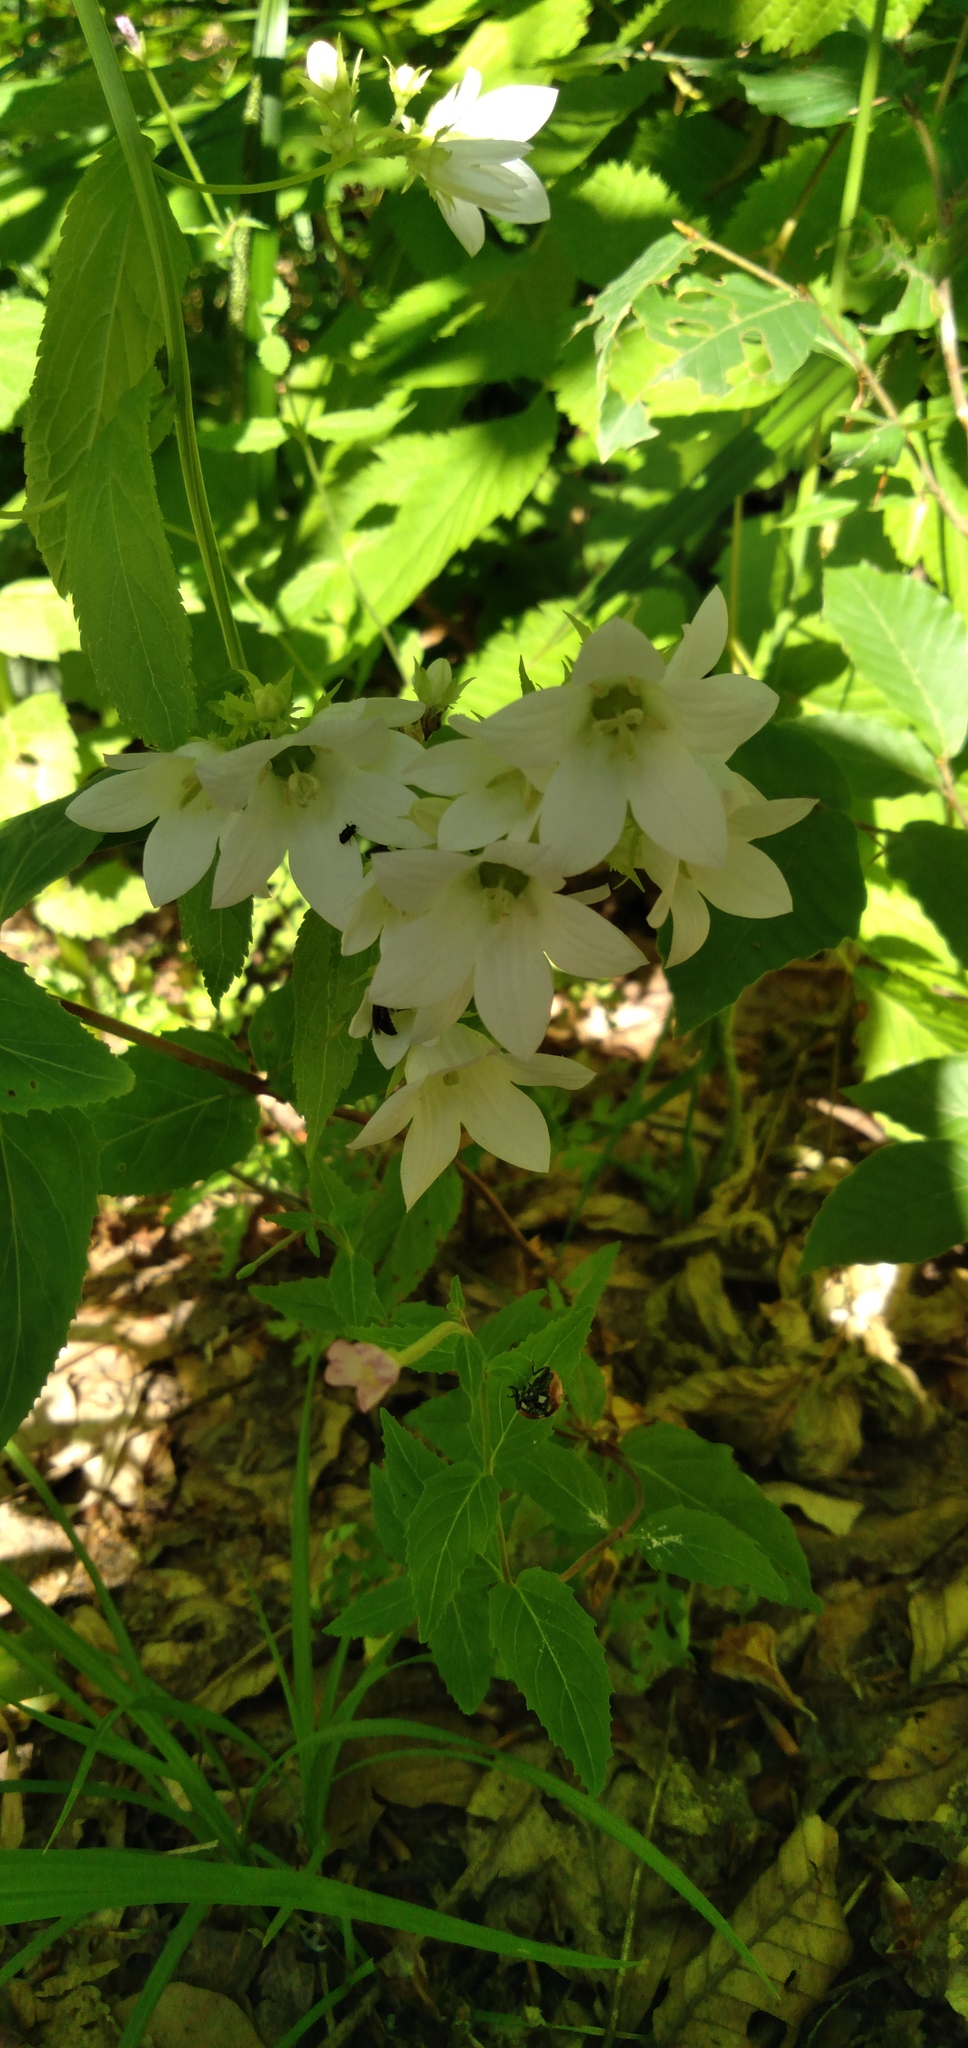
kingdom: Plantae
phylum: Tracheophyta
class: Magnoliopsida
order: Asterales
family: Campanulaceae
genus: Campanula
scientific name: Campanula lactiflora
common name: Milky bellflower
